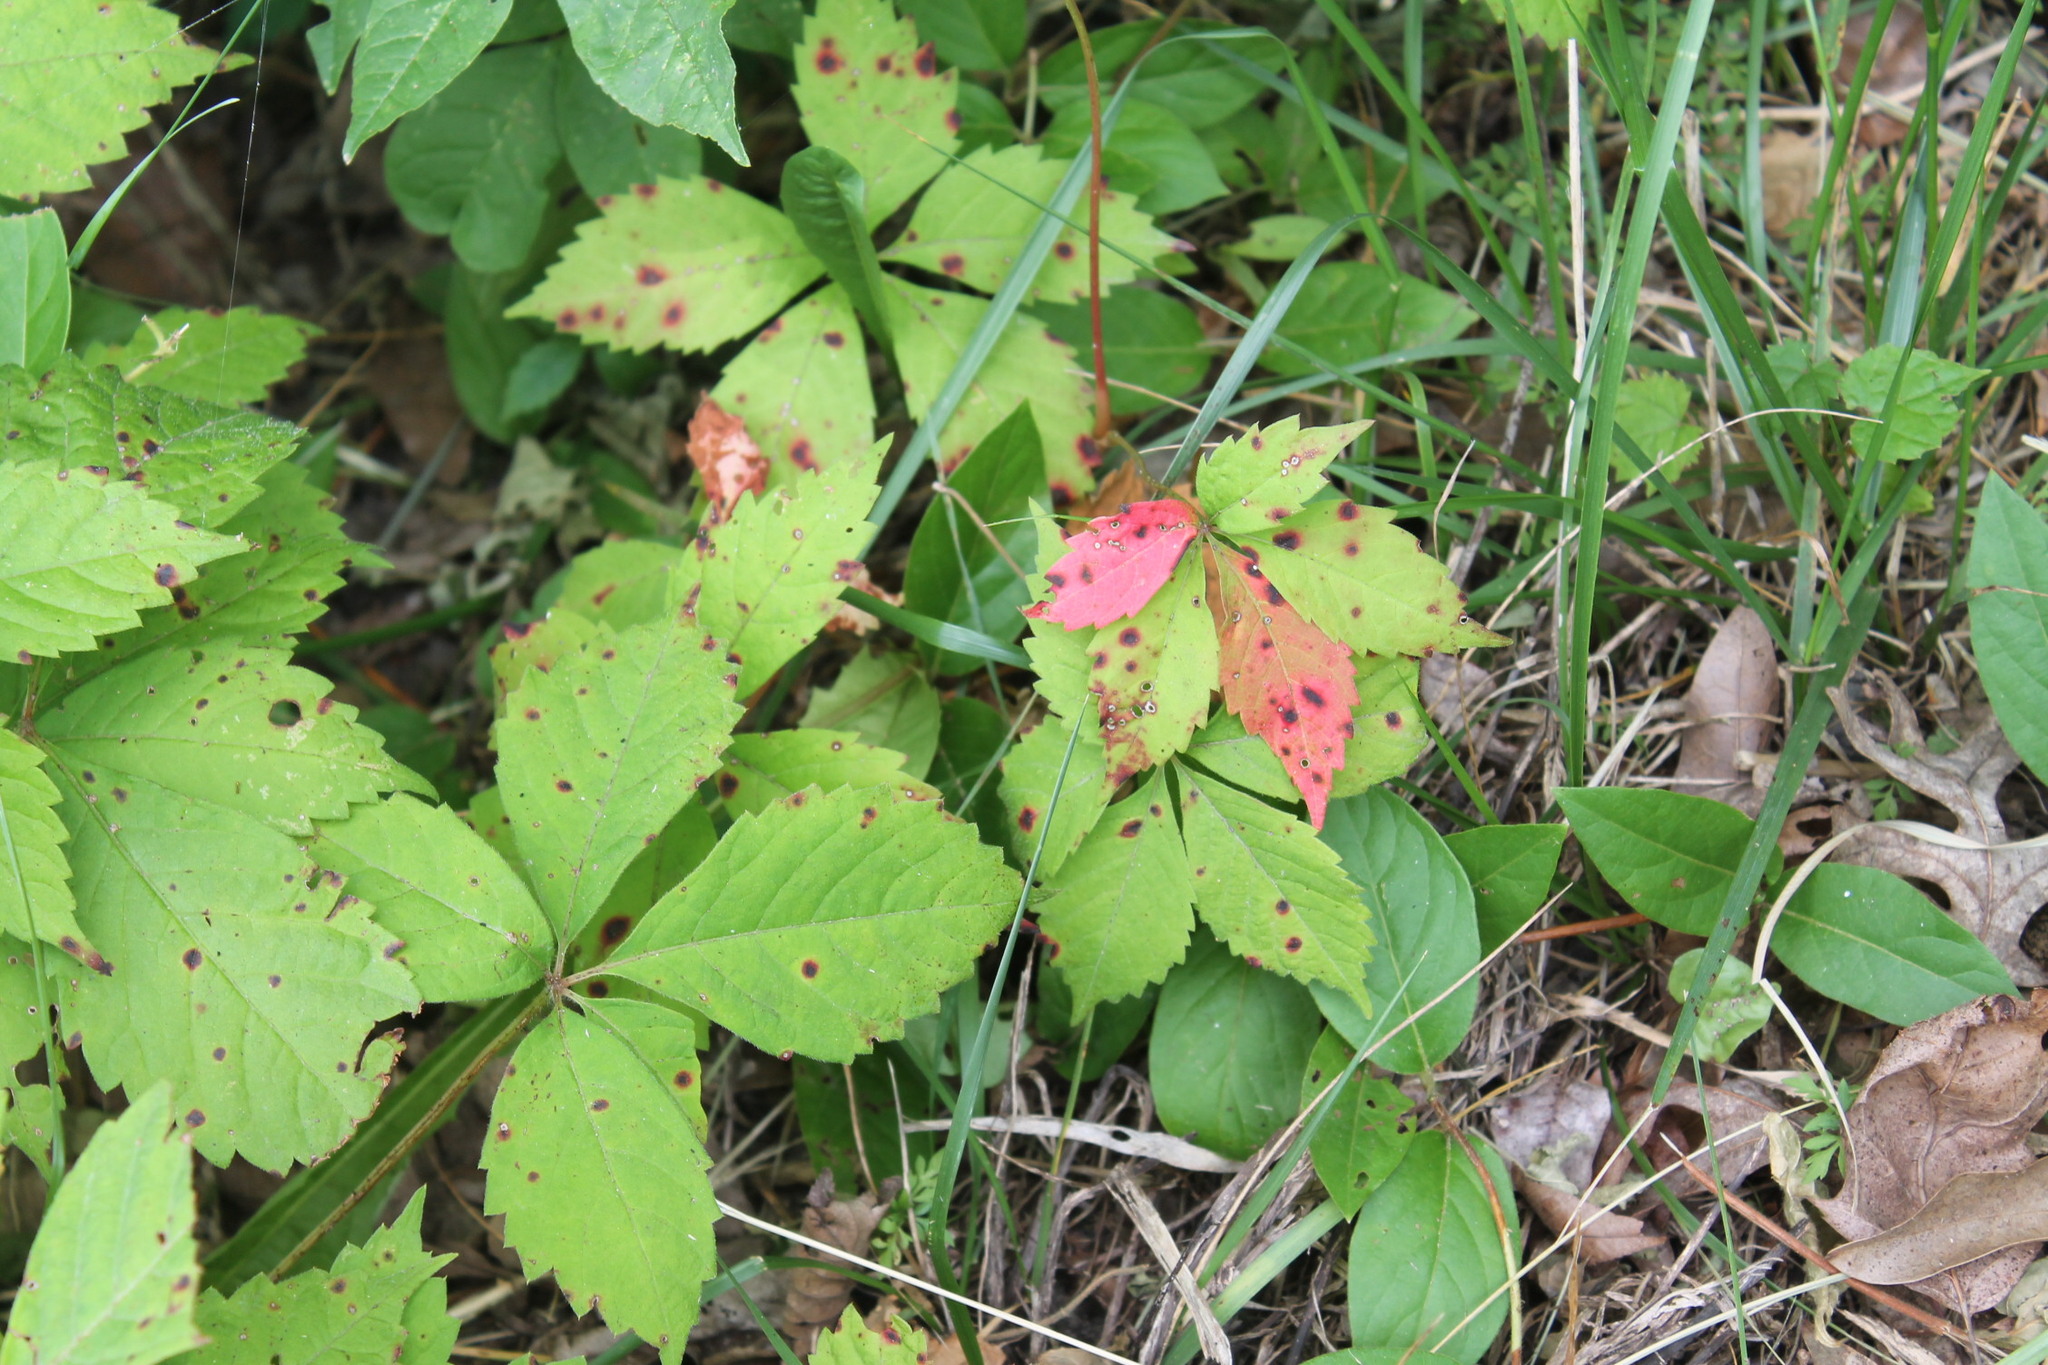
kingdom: Fungi
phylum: Ascomycota
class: Dothideomycetes
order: Botryosphaeriales
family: Phyllostictaceae
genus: Phyllosticta
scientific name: Phyllosticta parthenocissi
